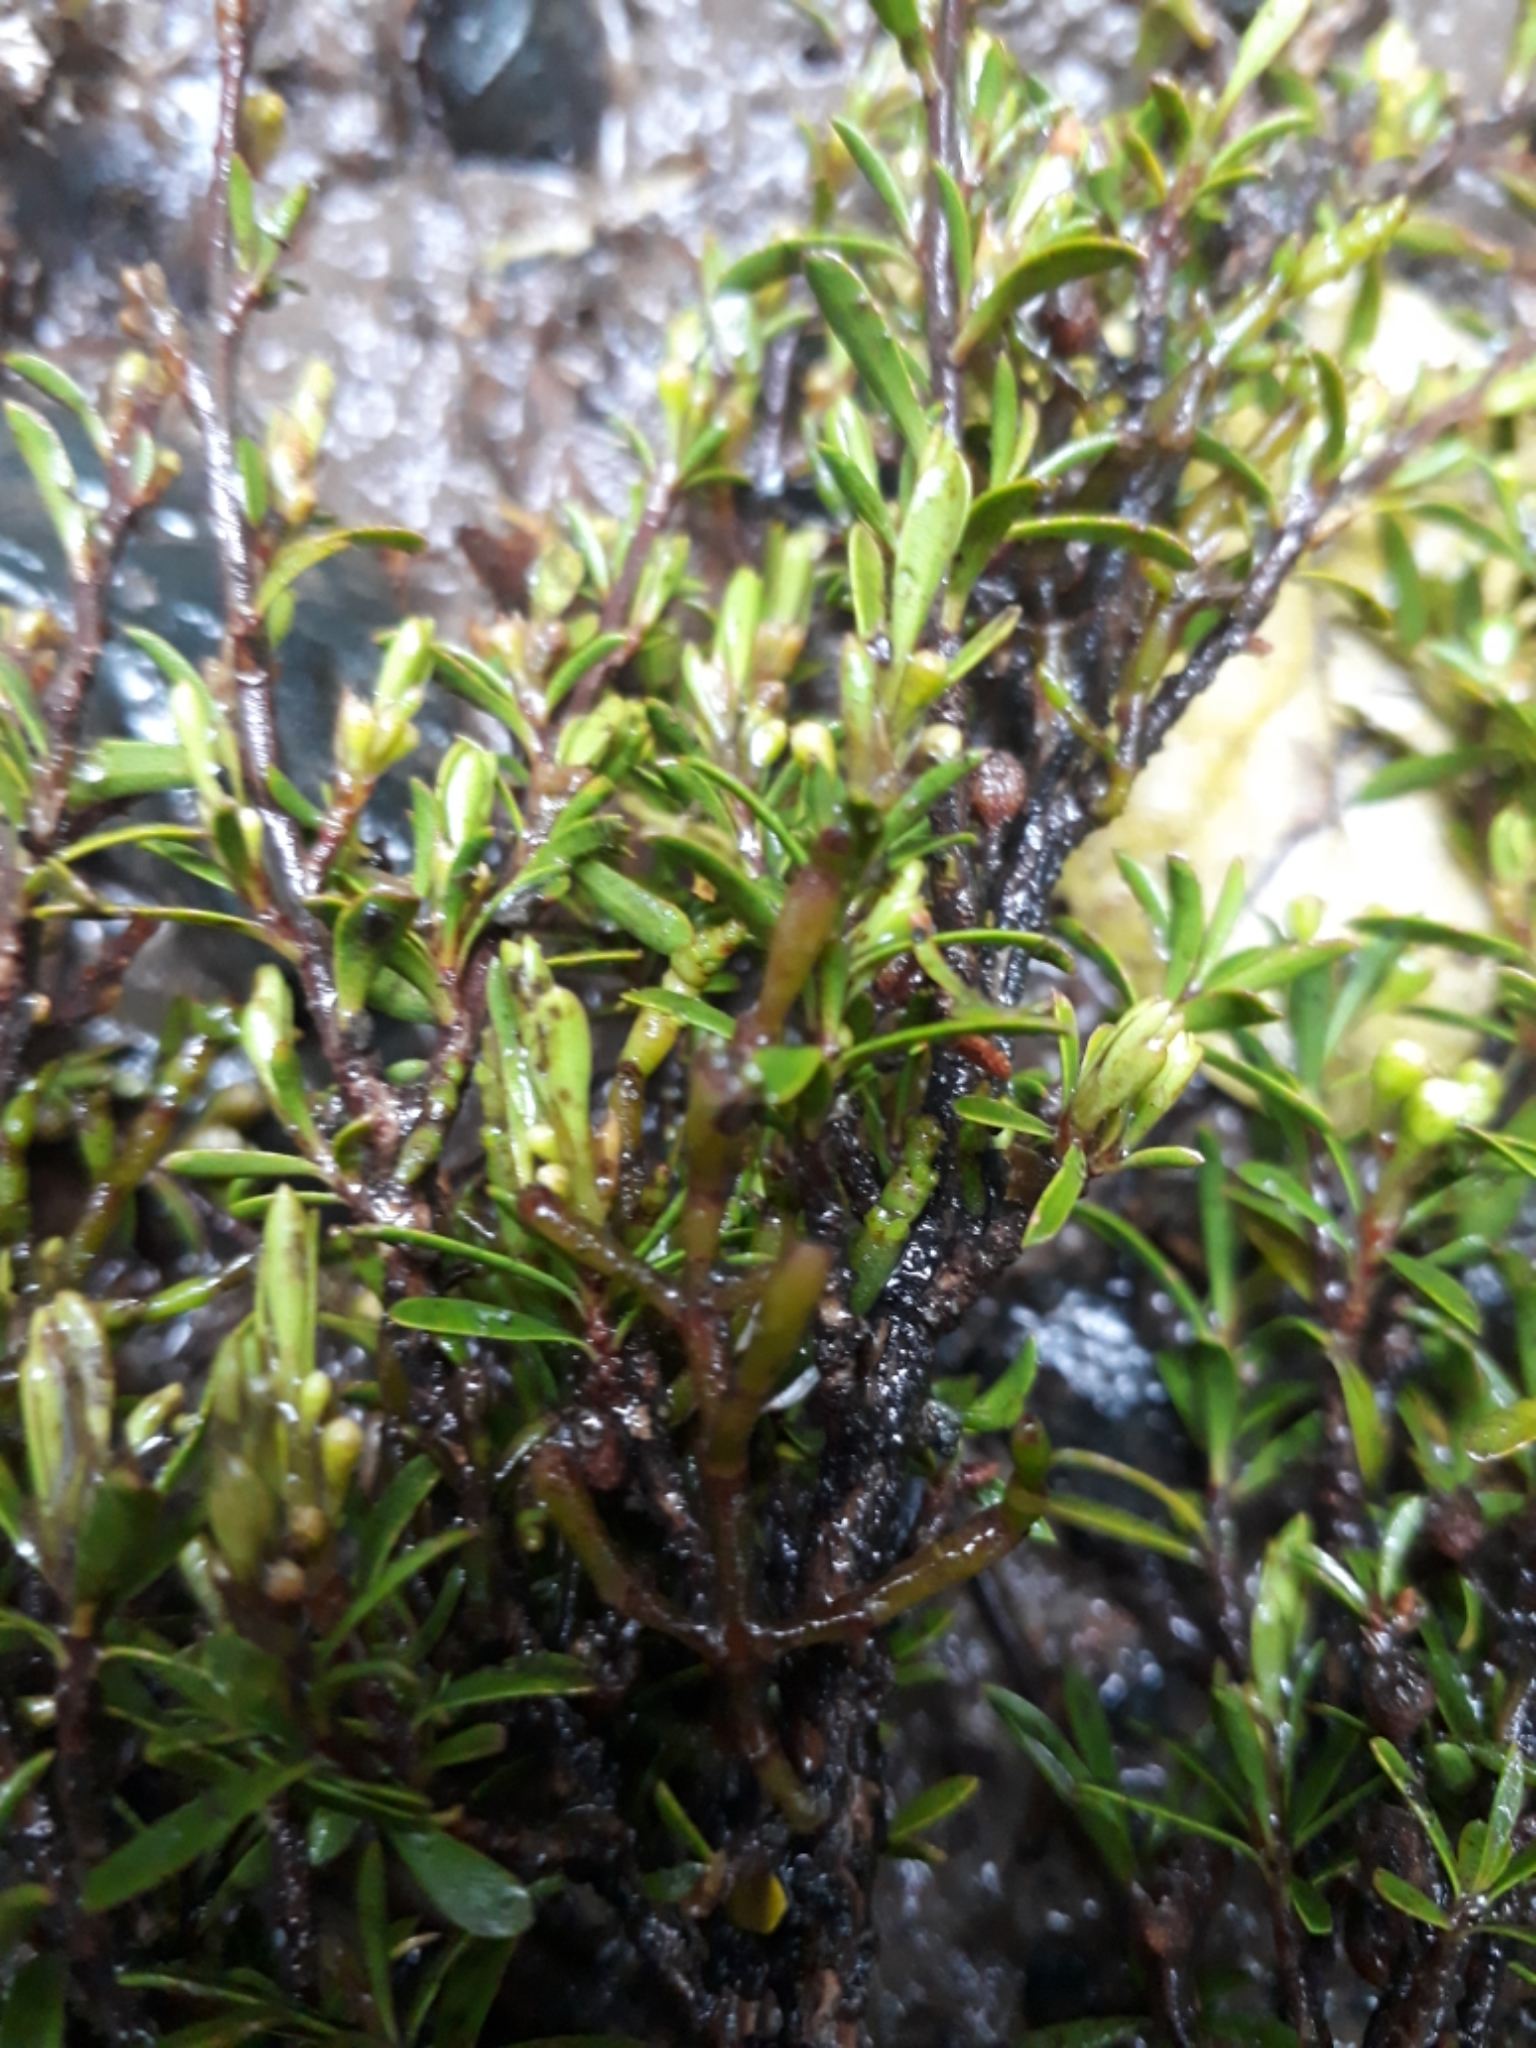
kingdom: Plantae
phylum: Tracheophyta
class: Magnoliopsida
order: Santalales
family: Viscaceae
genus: Korthalsella
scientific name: Korthalsella salicornioides
